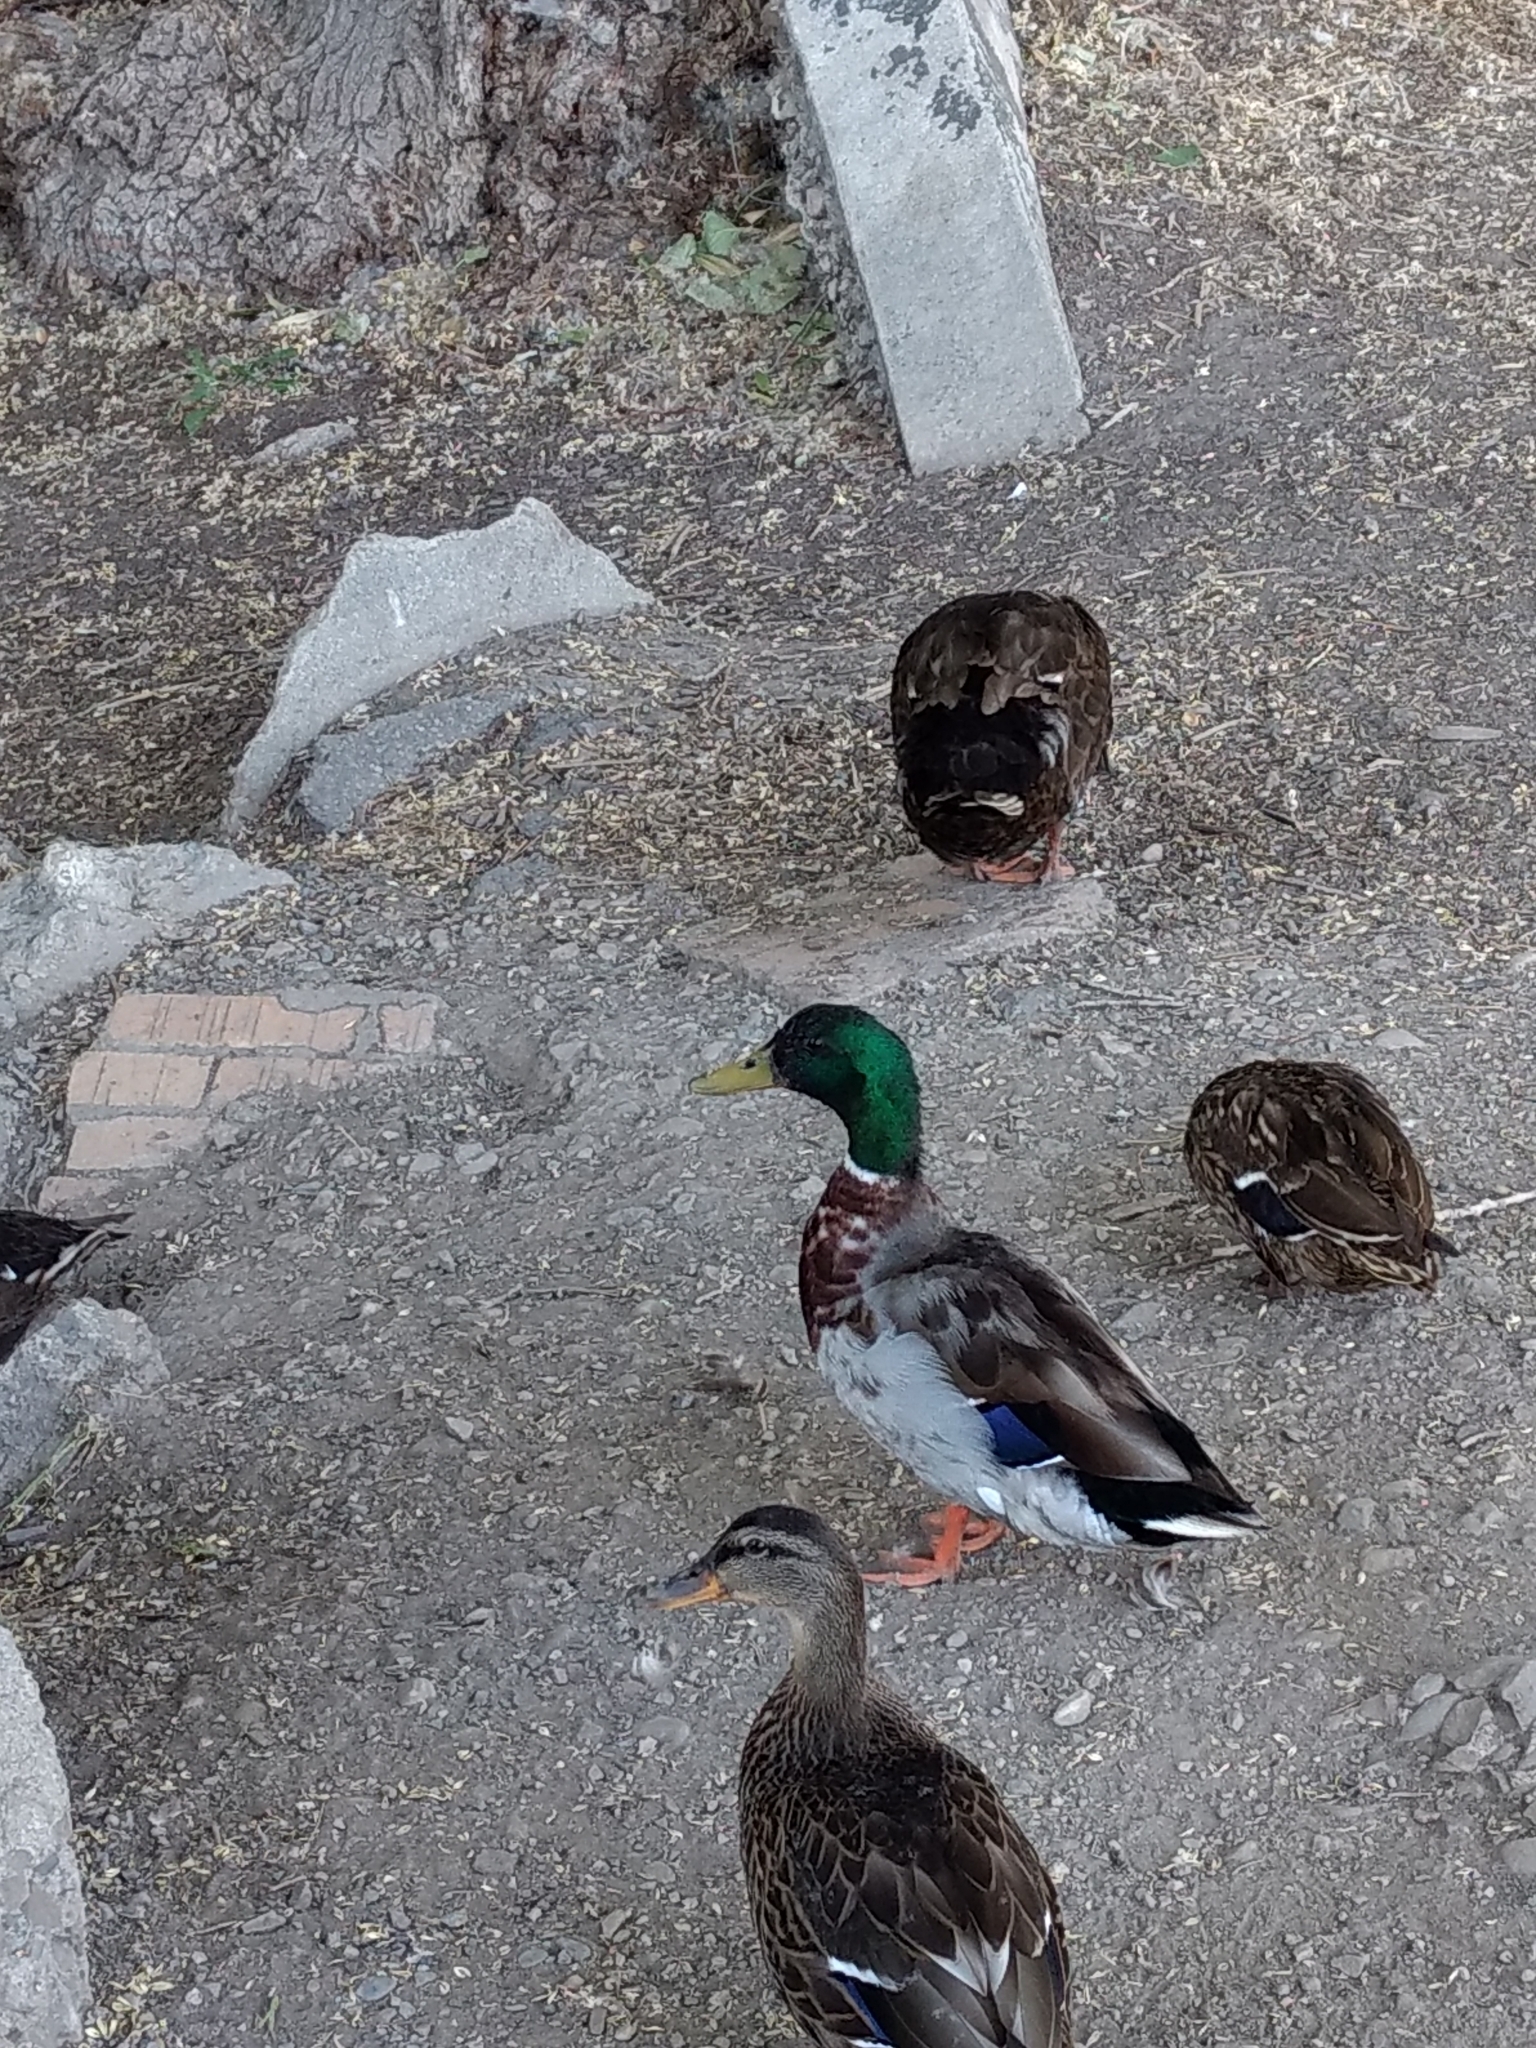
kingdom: Animalia
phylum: Chordata
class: Aves
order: Anseriformes
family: Anatidae
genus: Anas
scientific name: Anas platyrhynchos
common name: Mallard
